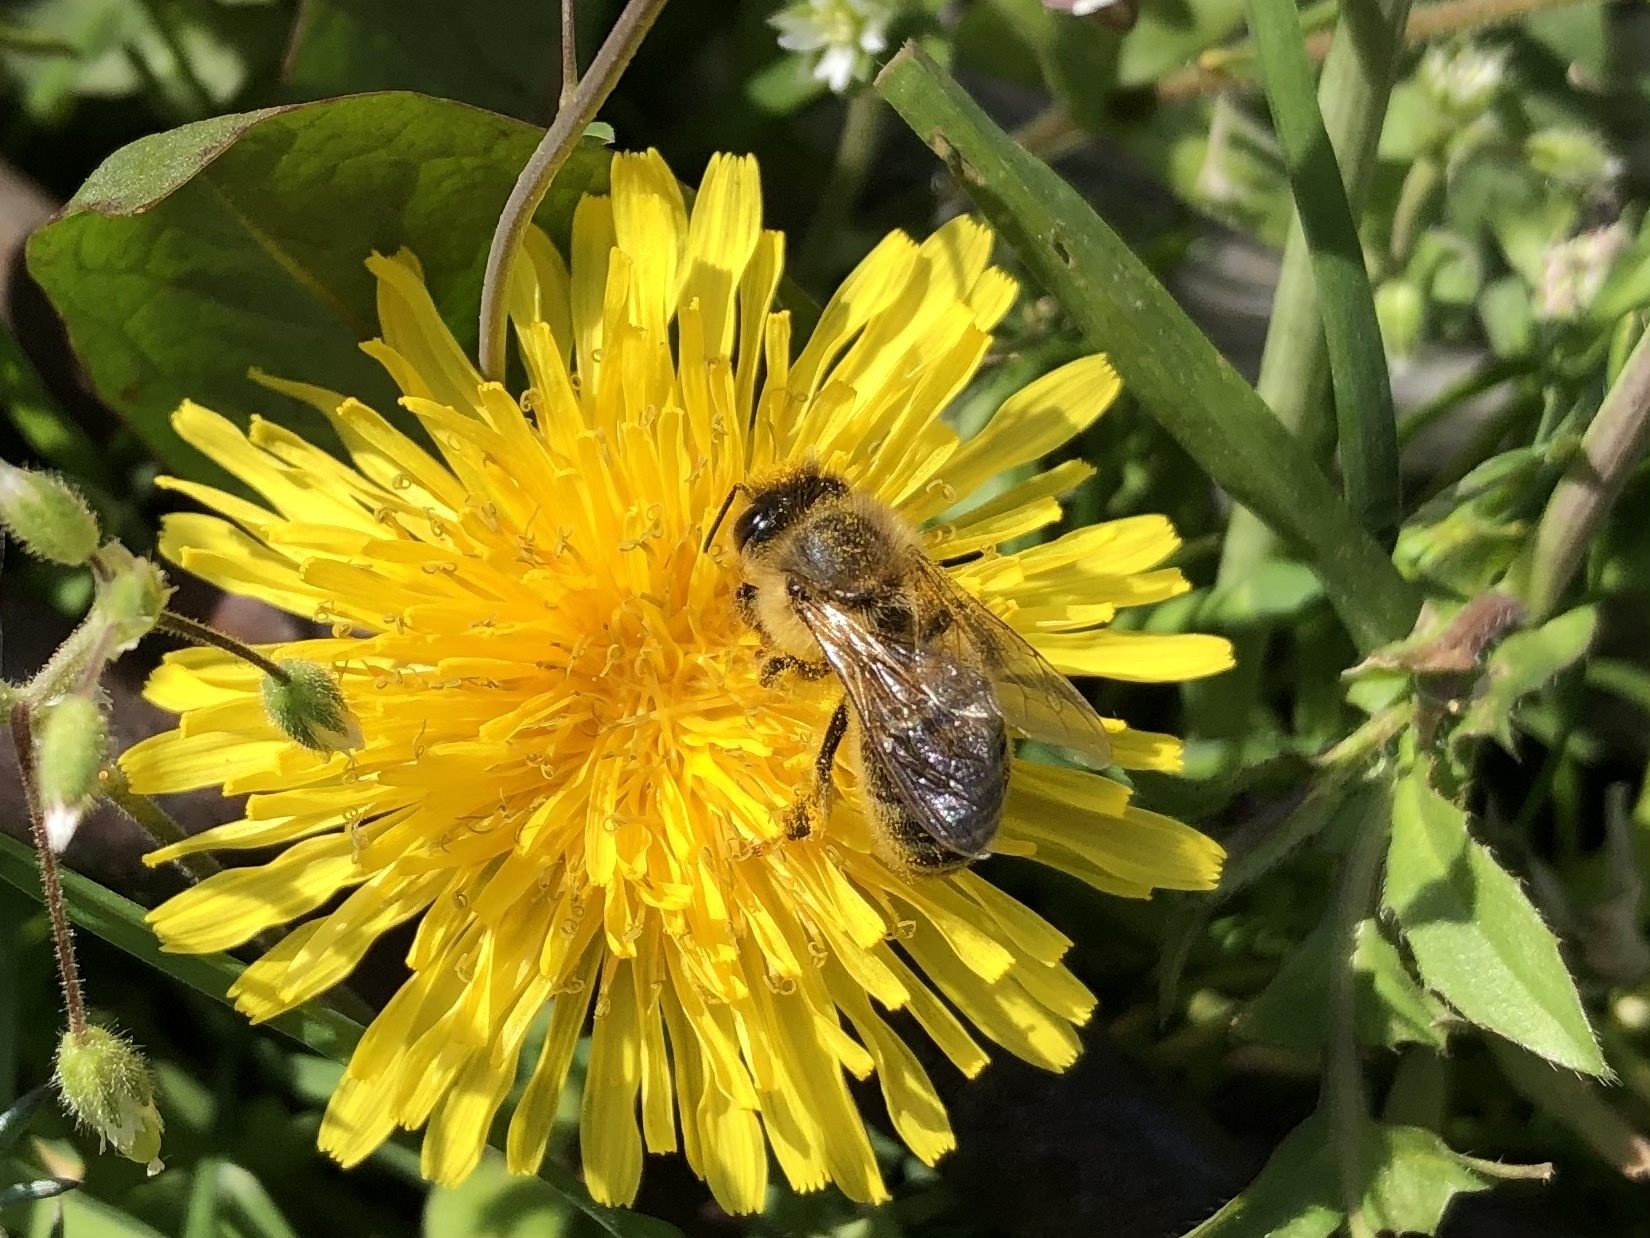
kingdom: Animalia
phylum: Arthropoda
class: Insecta
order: Hymenoptera
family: Apidae
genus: Apis
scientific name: Apis mellifera
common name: Honey bee
